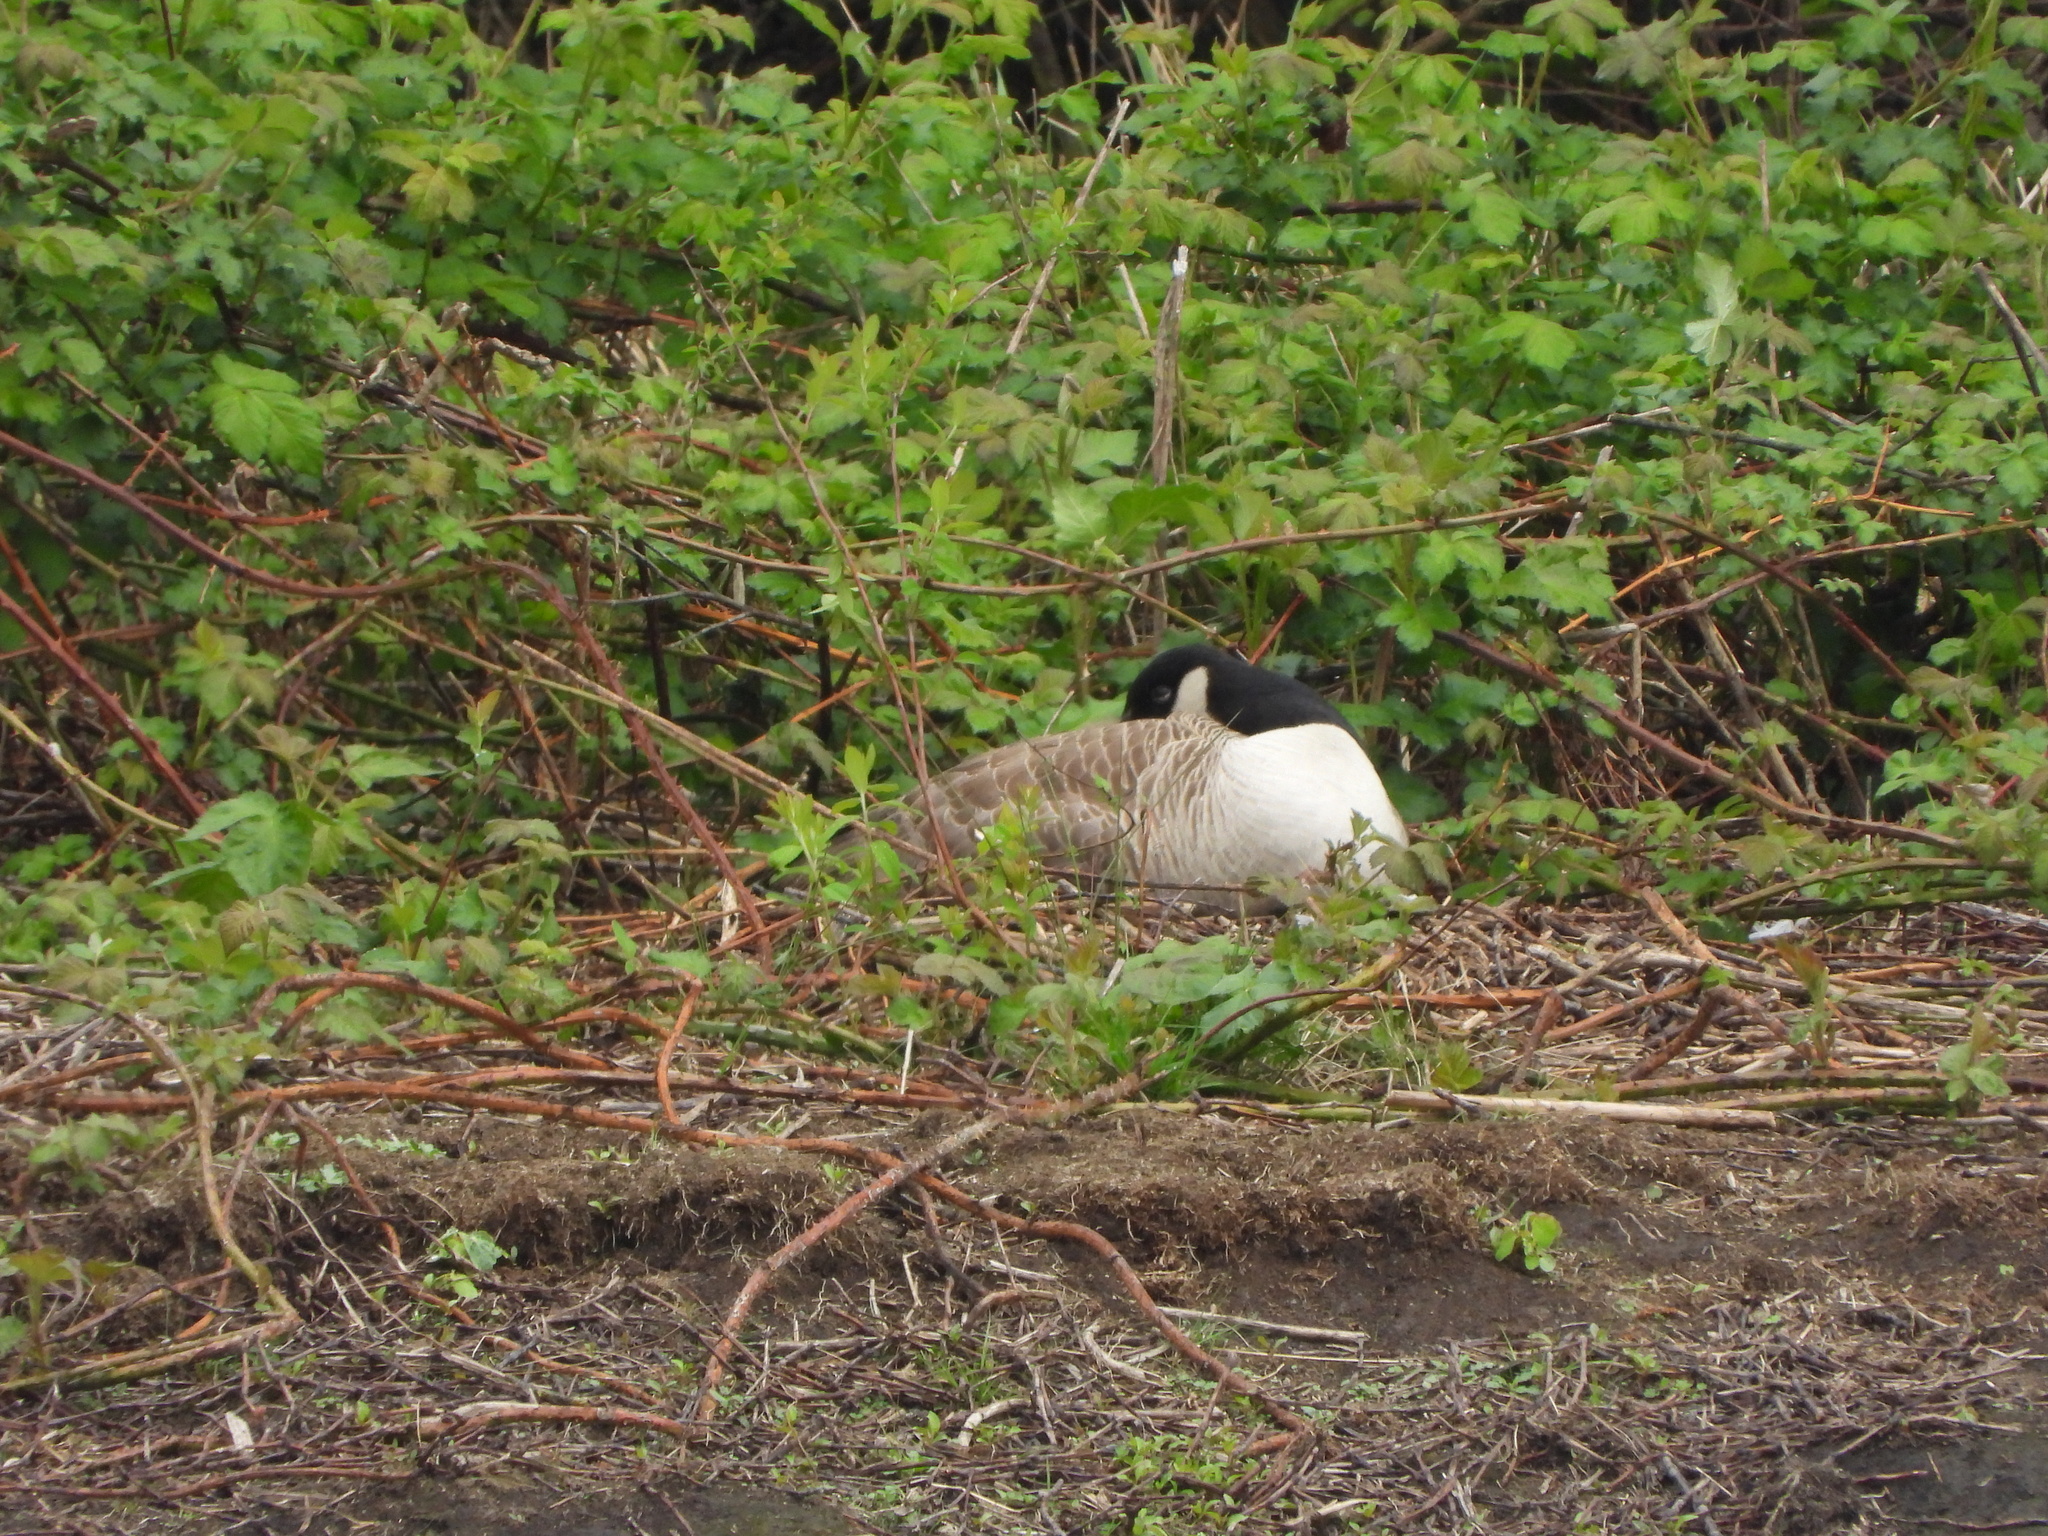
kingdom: Animalia
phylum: Chordata
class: Aves
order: Anseriformes
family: Anatidae
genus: Branta
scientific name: Branta canadensis
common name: Canada goose
